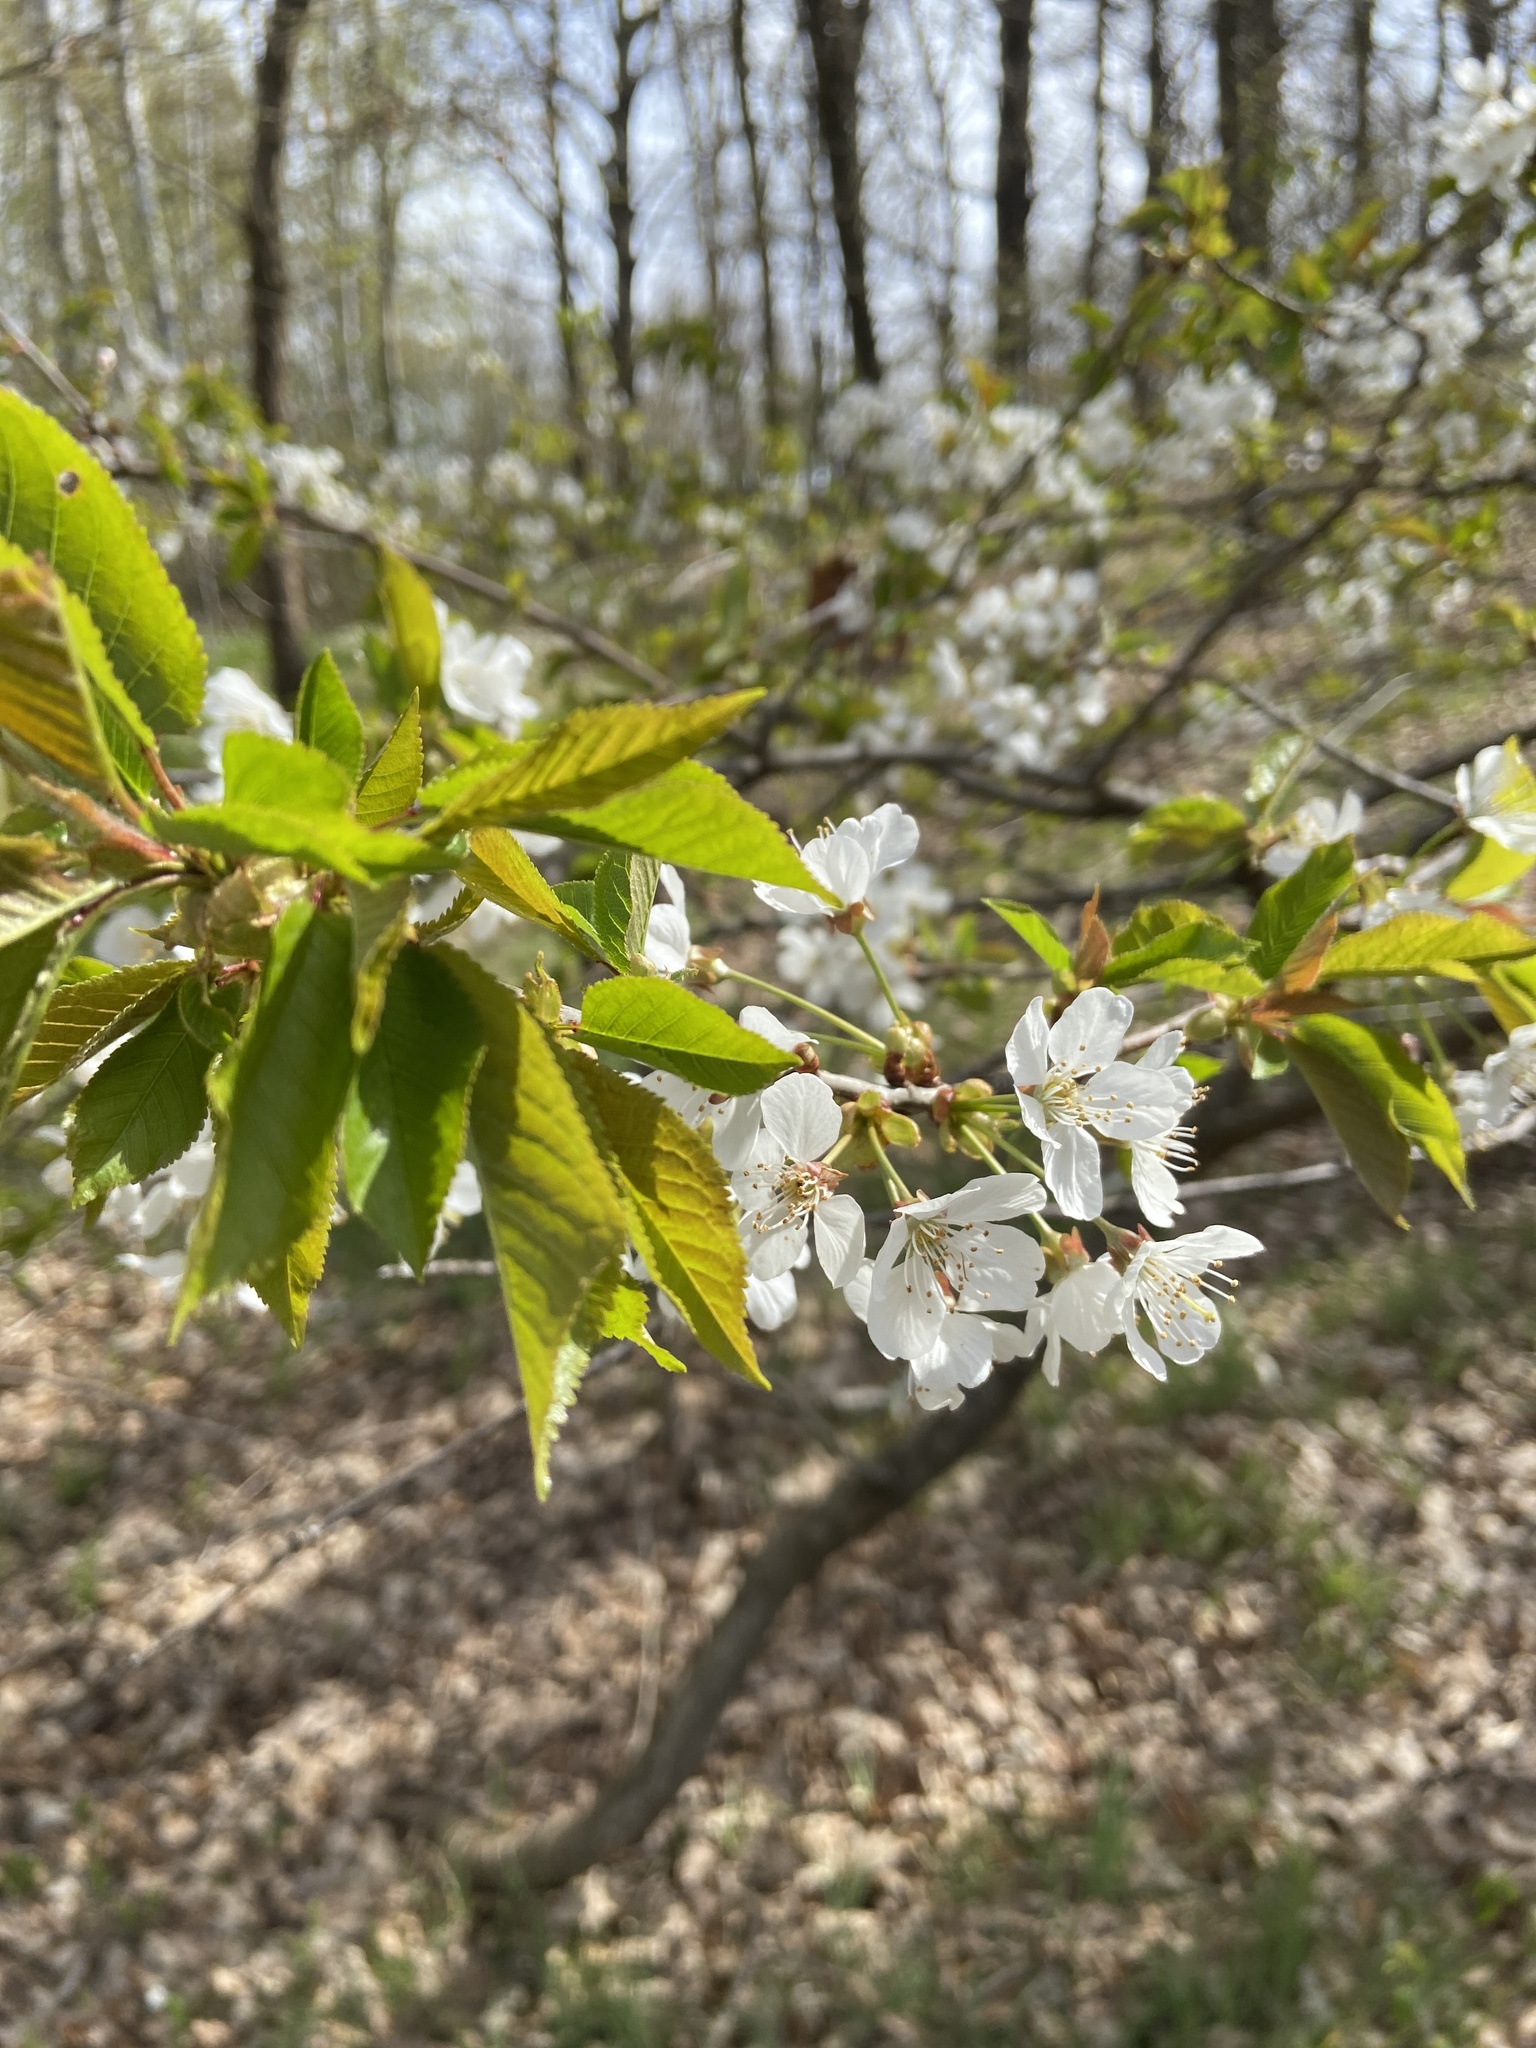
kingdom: Plantae
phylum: Tracheophyta
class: Magnoliopsida
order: Rosales
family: Rosaceae
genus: Prunus
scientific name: Prunus avium
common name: Sweet cherry
